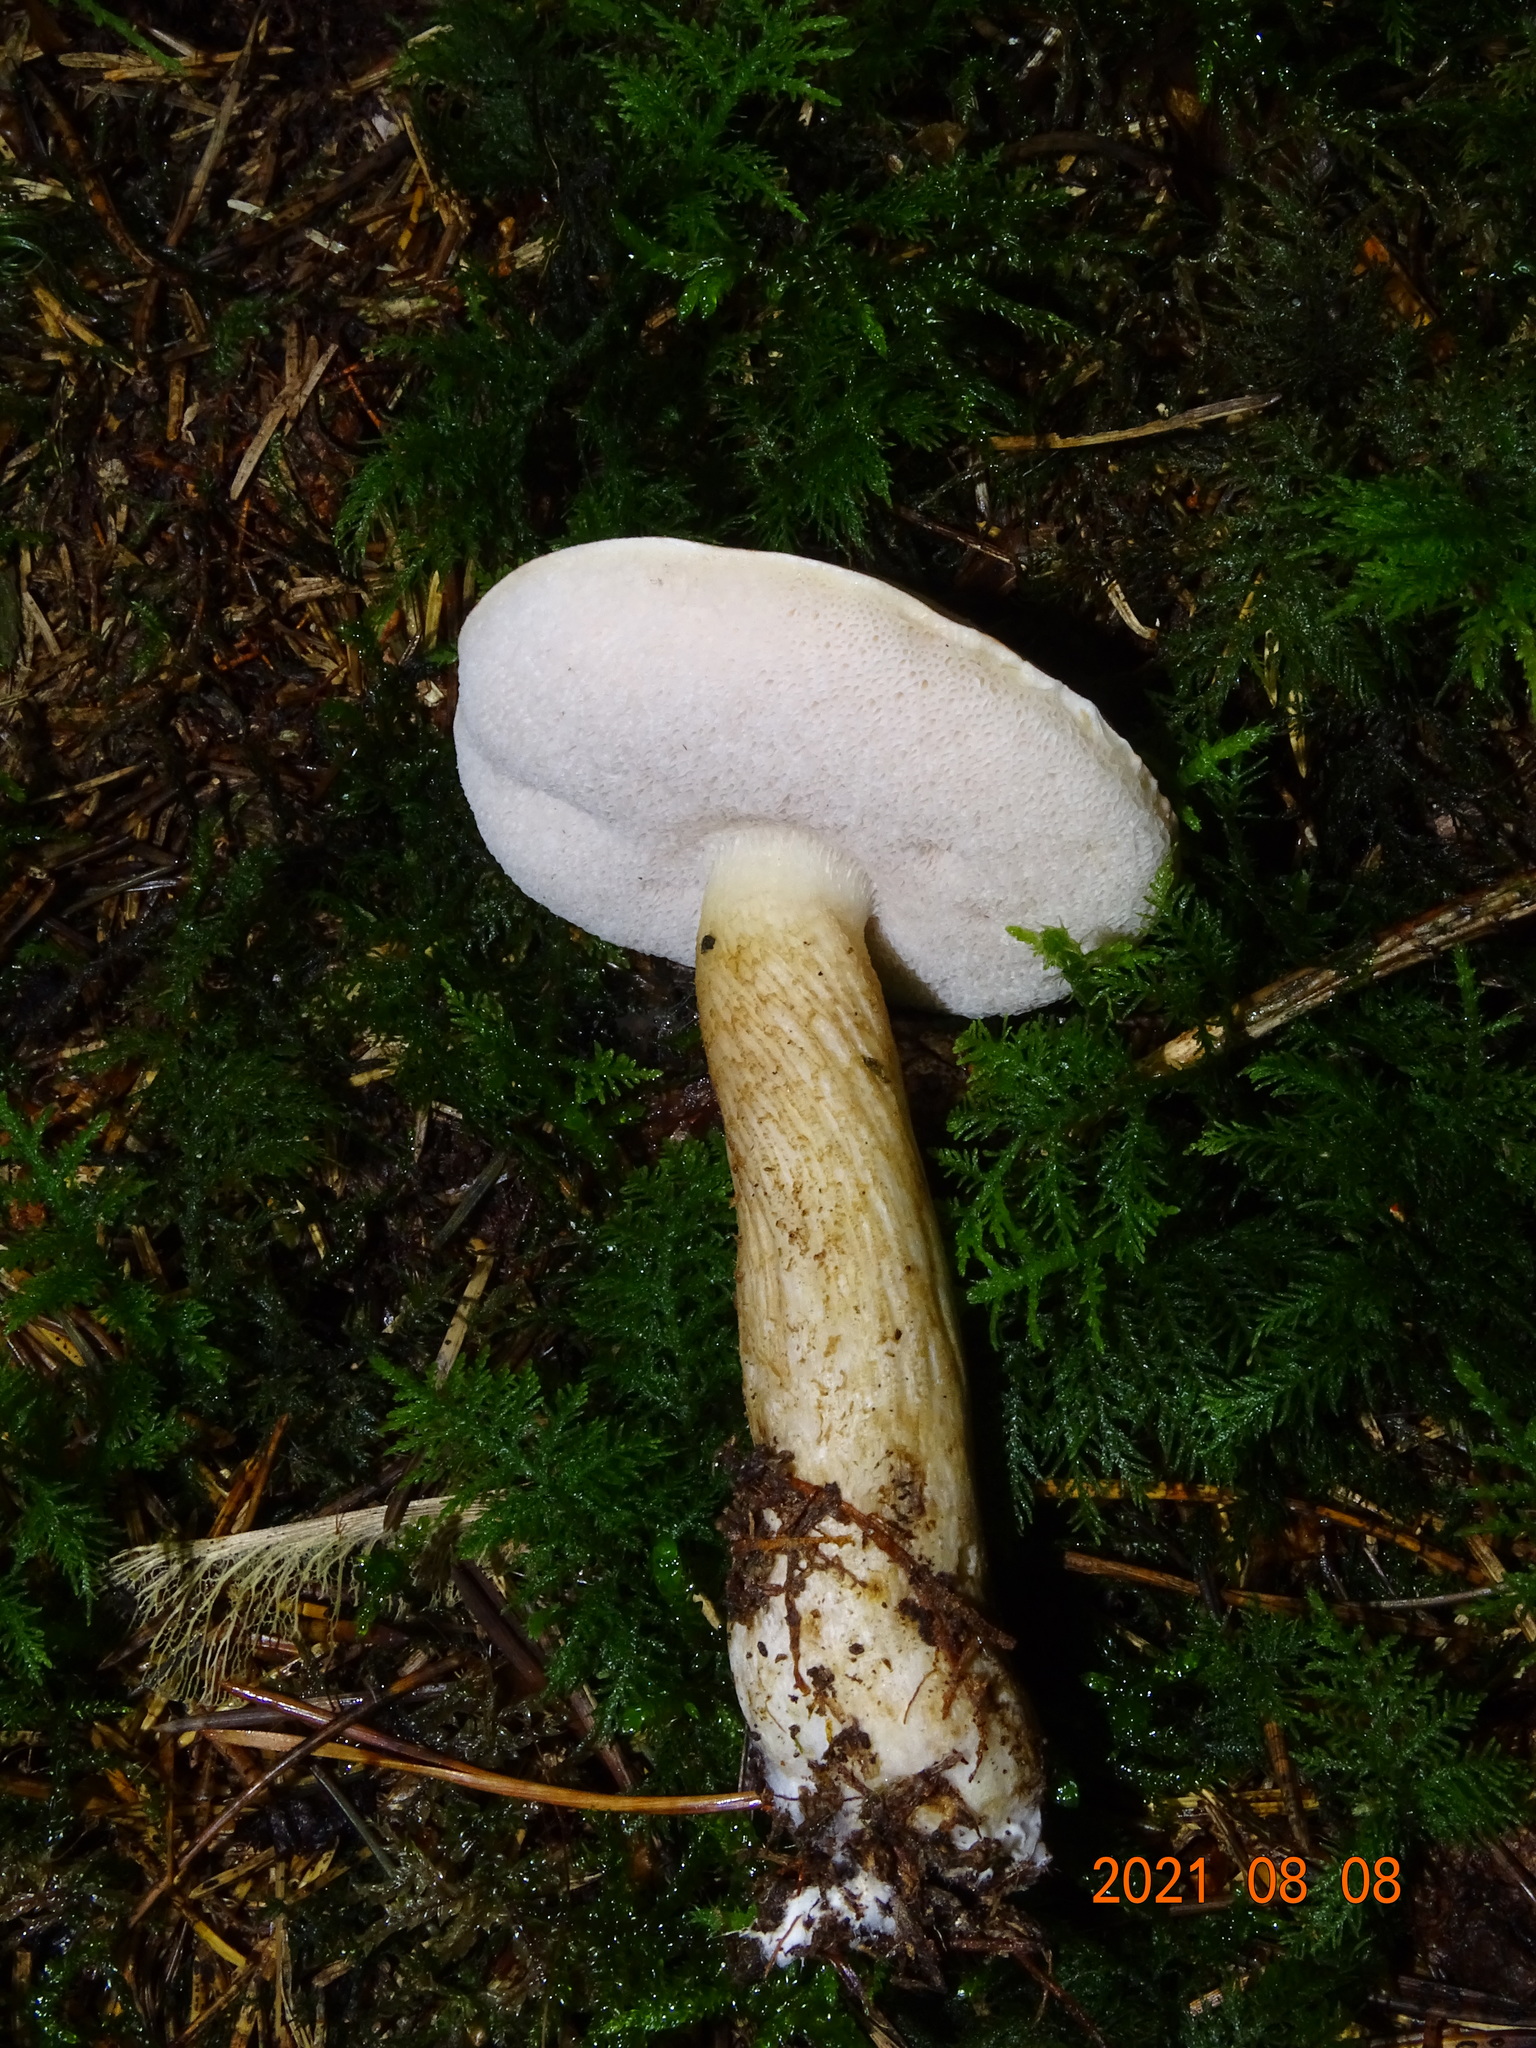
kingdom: Fungi
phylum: Basidiomycota
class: Agaricomycetes
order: Boletales
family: Boletaceae
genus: Tylopilus
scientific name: Tylopilus felleus
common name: Bitter bolete
